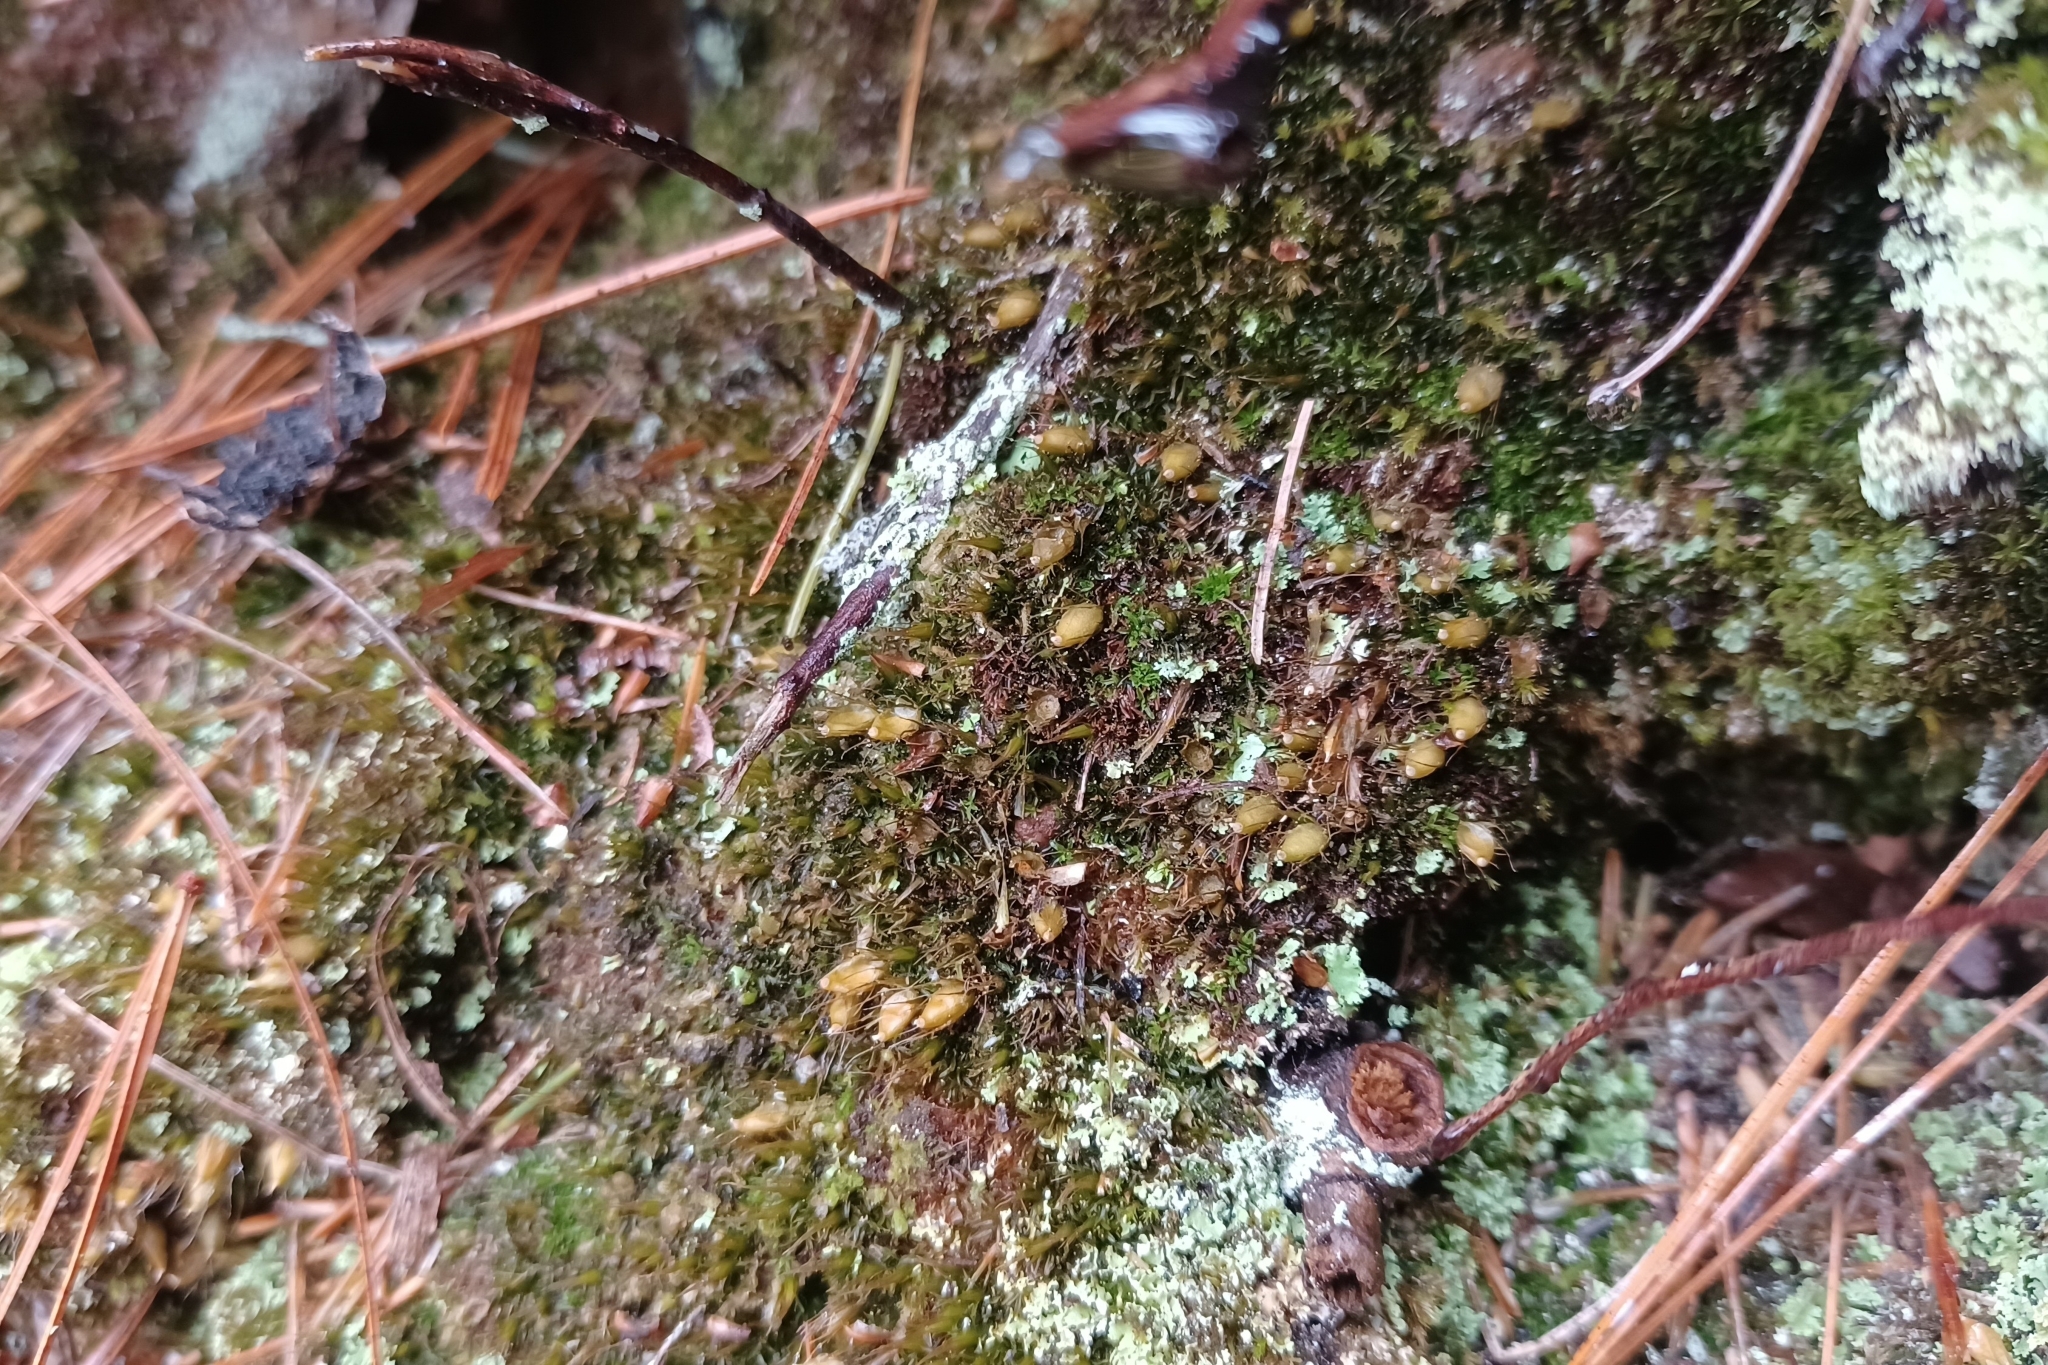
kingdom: Plantae
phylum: Bryophyta
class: Bryopsida
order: Diphysciales
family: Diphysciaceae
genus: Diphyscium
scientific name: Diphyscium foliosum
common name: Nut moss
